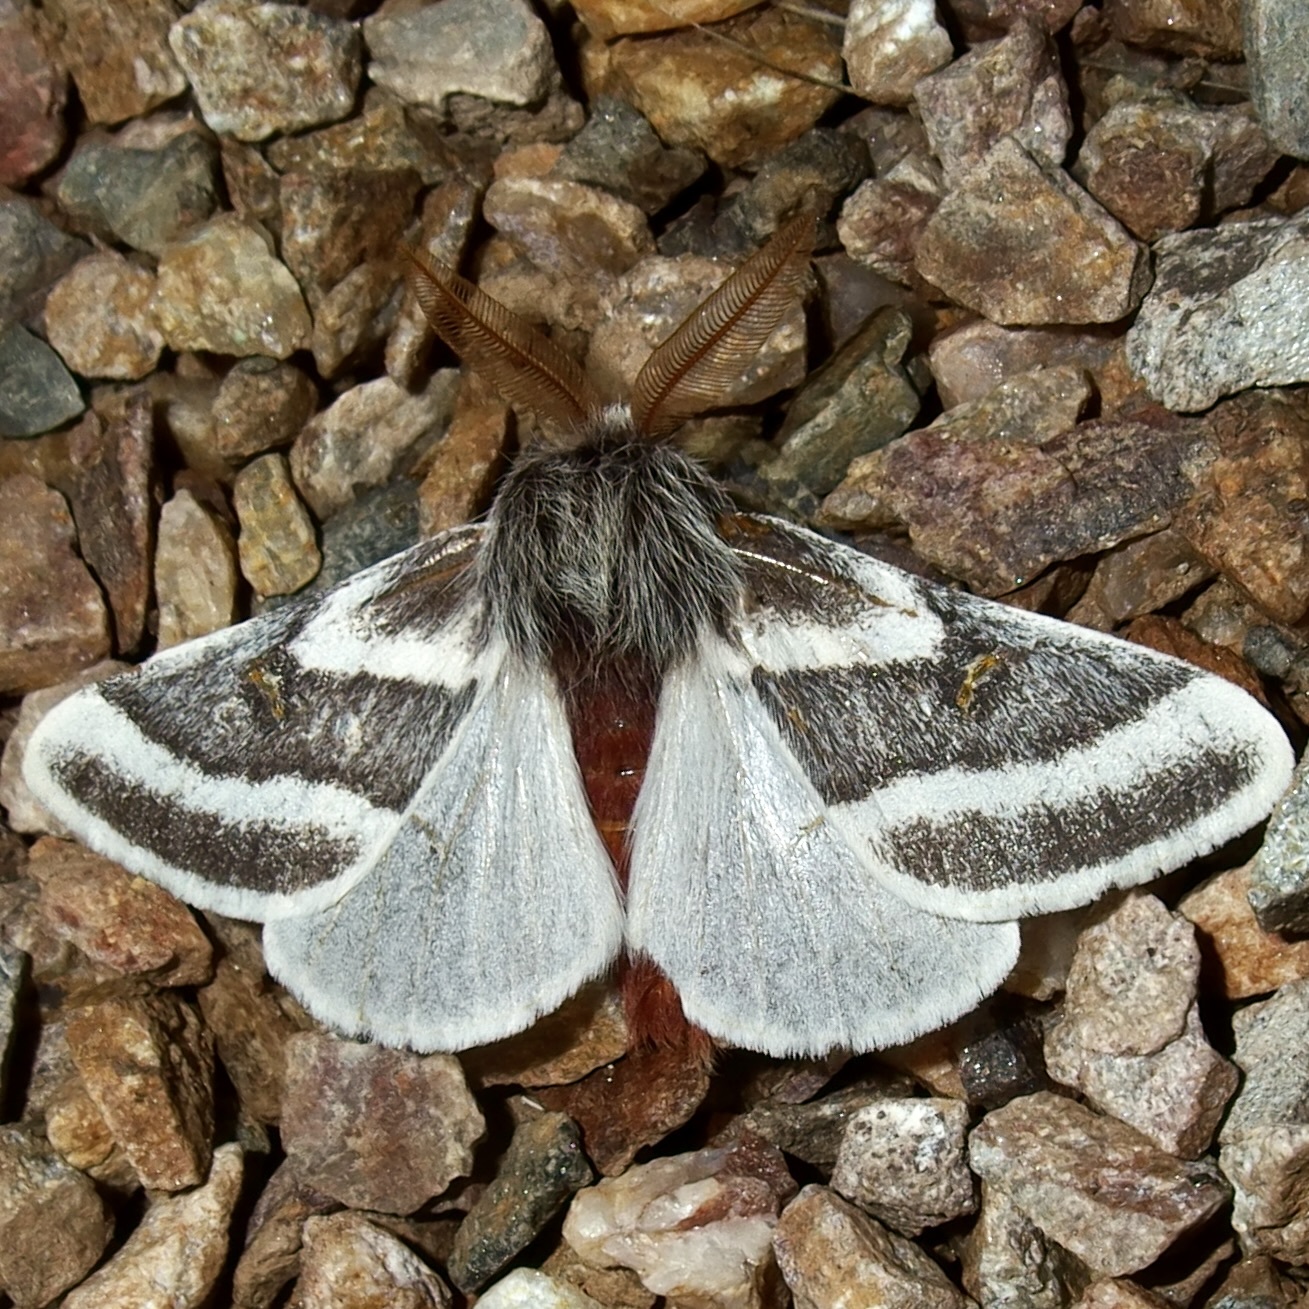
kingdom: Animalia
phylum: Arthropoda
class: Insecta
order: Lepidoptera
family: Saturniidae
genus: Hemileuca
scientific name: Hemileuca tricolor
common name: Tricolor buckmoth
